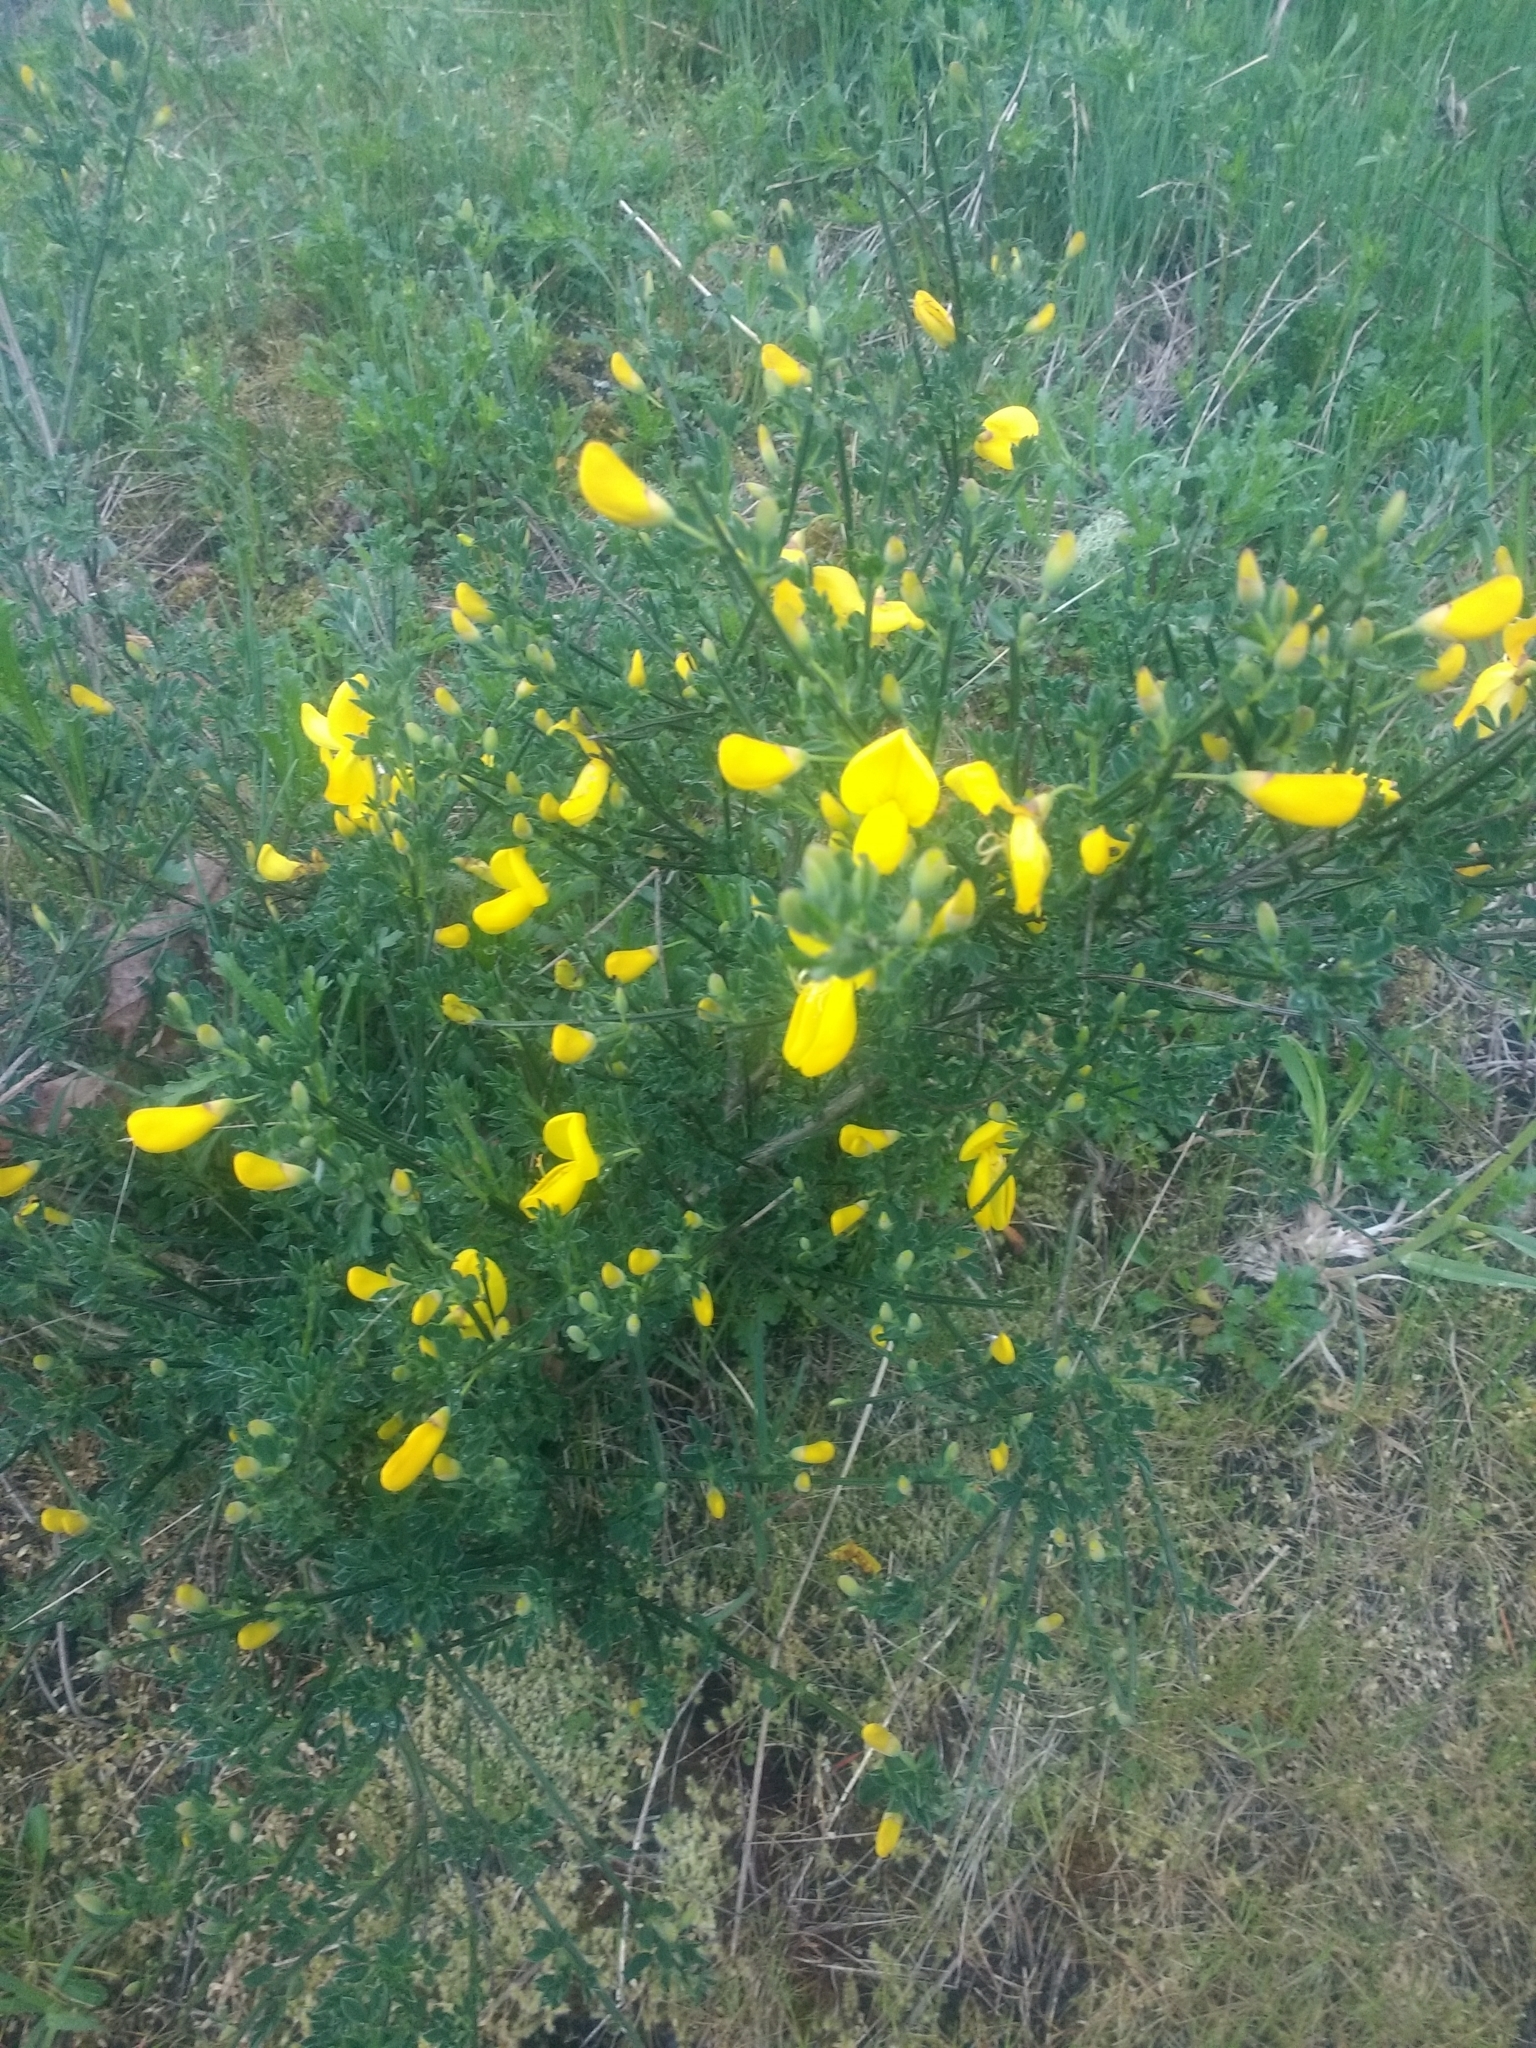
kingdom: Plantae
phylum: Tracheophyta
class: Magnoliopsida
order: Fabales
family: Fabaceae
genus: Cytisus
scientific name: Cytisus scoparius
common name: Scotch broom
